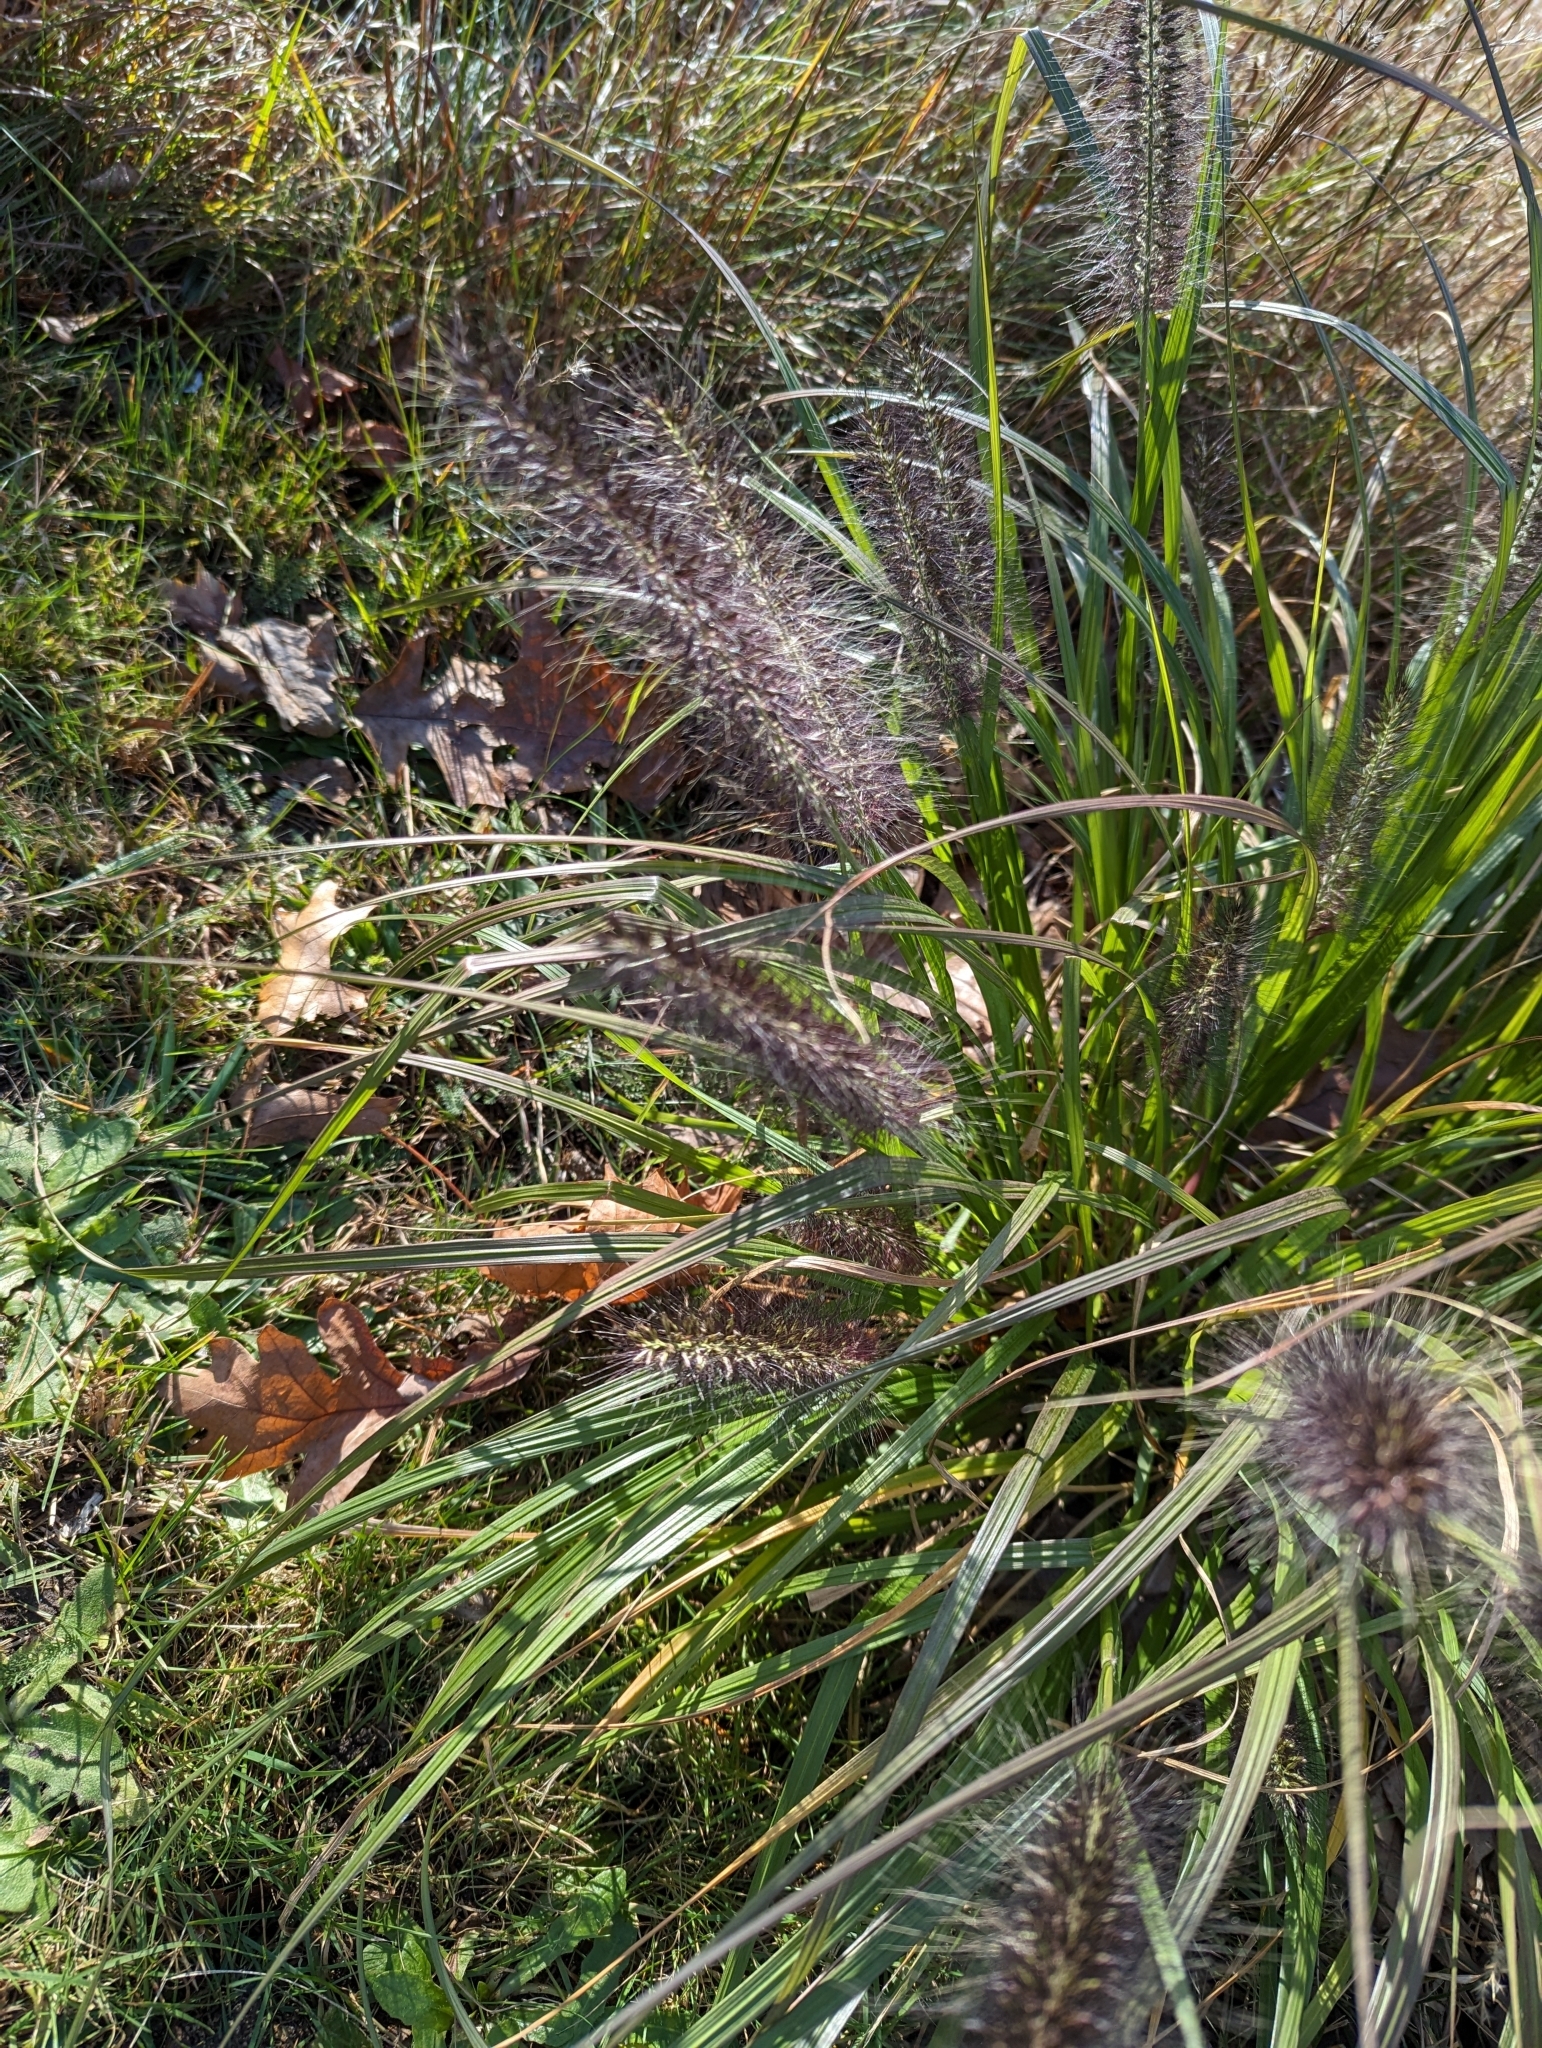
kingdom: Plantae
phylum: Tracheophyta
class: Liliopsida
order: Poales
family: Poaceae
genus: Cenchrus
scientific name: Cenchrus alopecuroides
